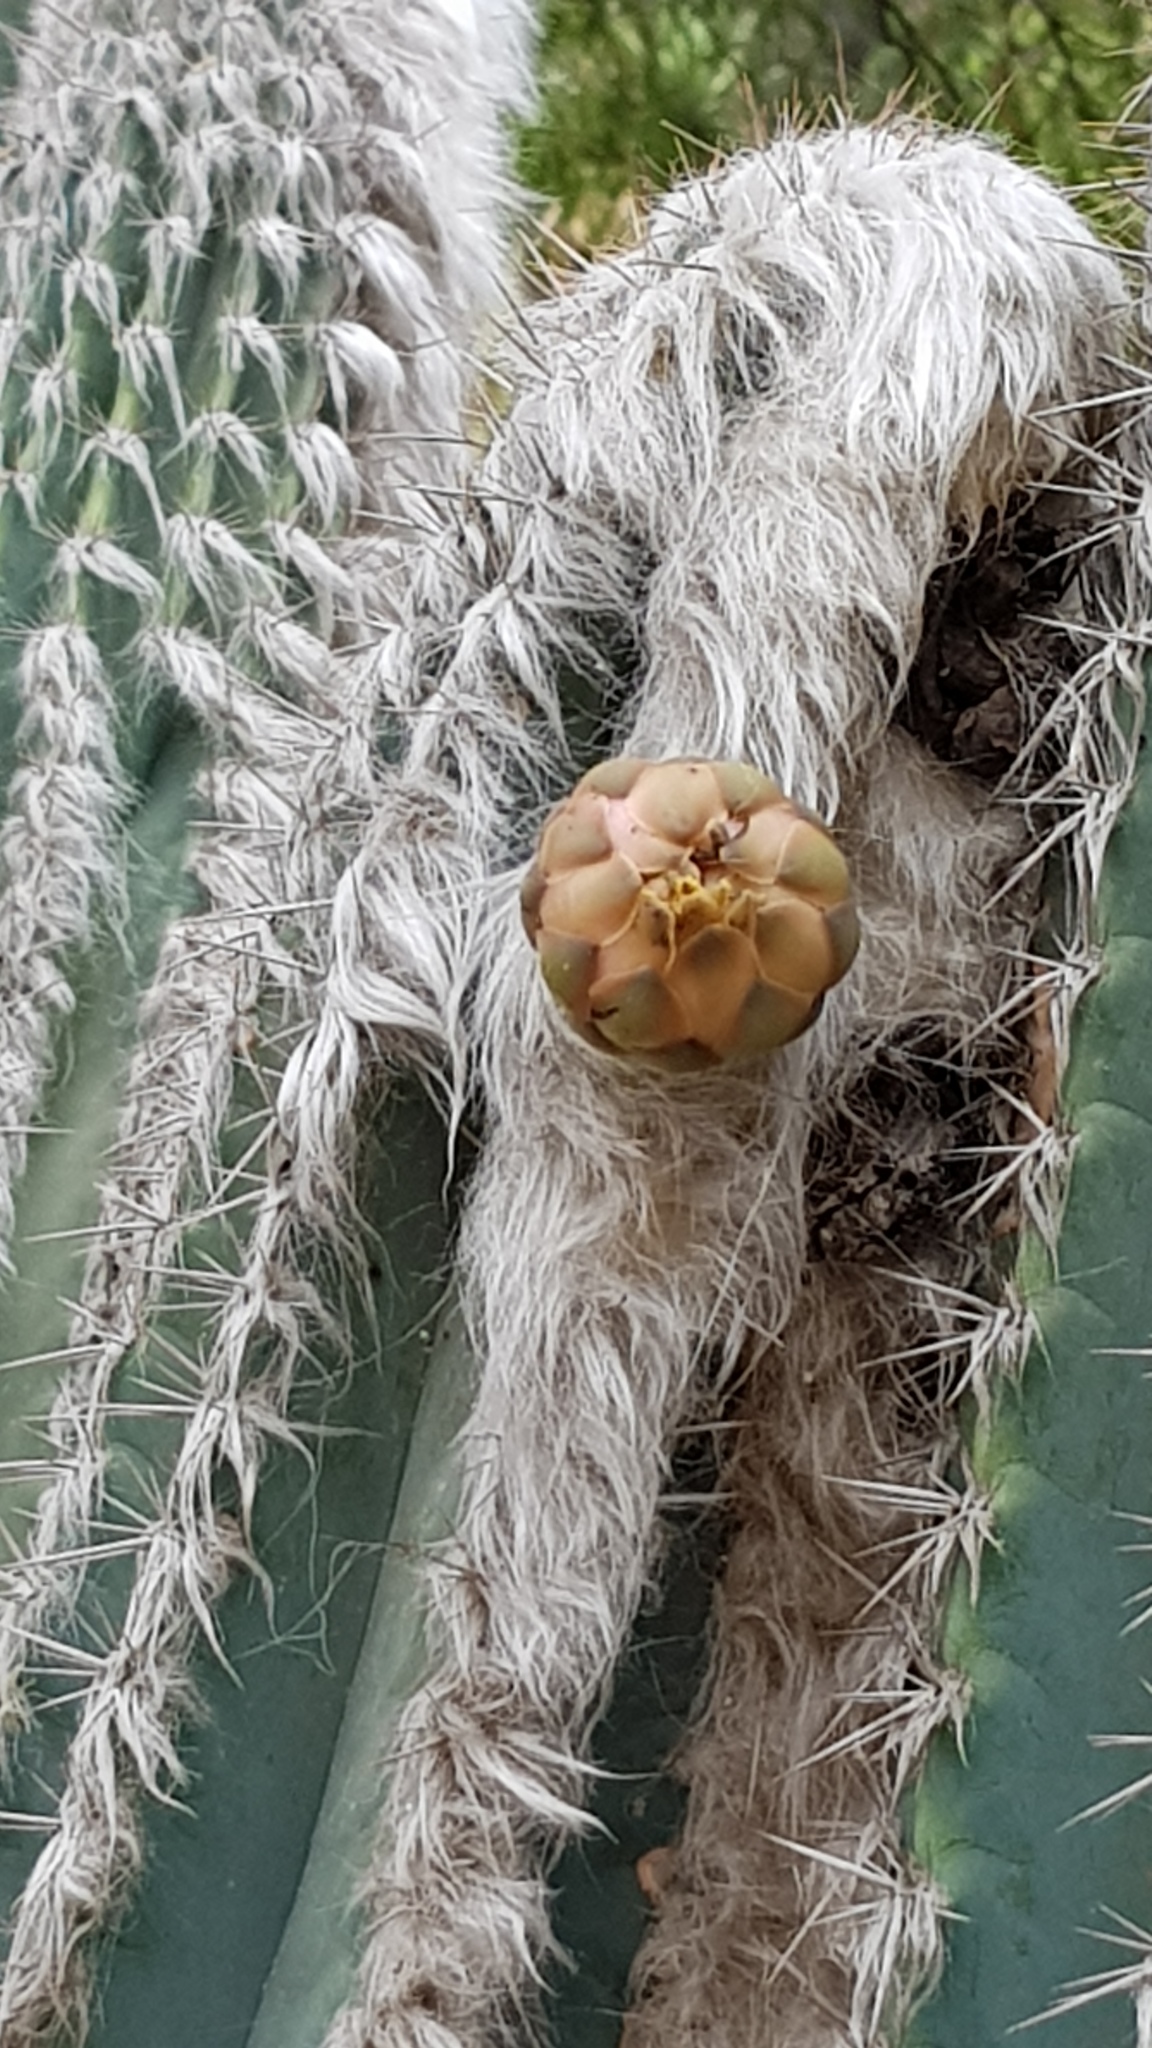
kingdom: Plantae
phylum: Tracheophyta
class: Magnoliopsida
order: Caryophyllales
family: Cactaceae
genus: Pilosocereus
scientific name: Pilosocereus leucocephalus
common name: Old man cactus
